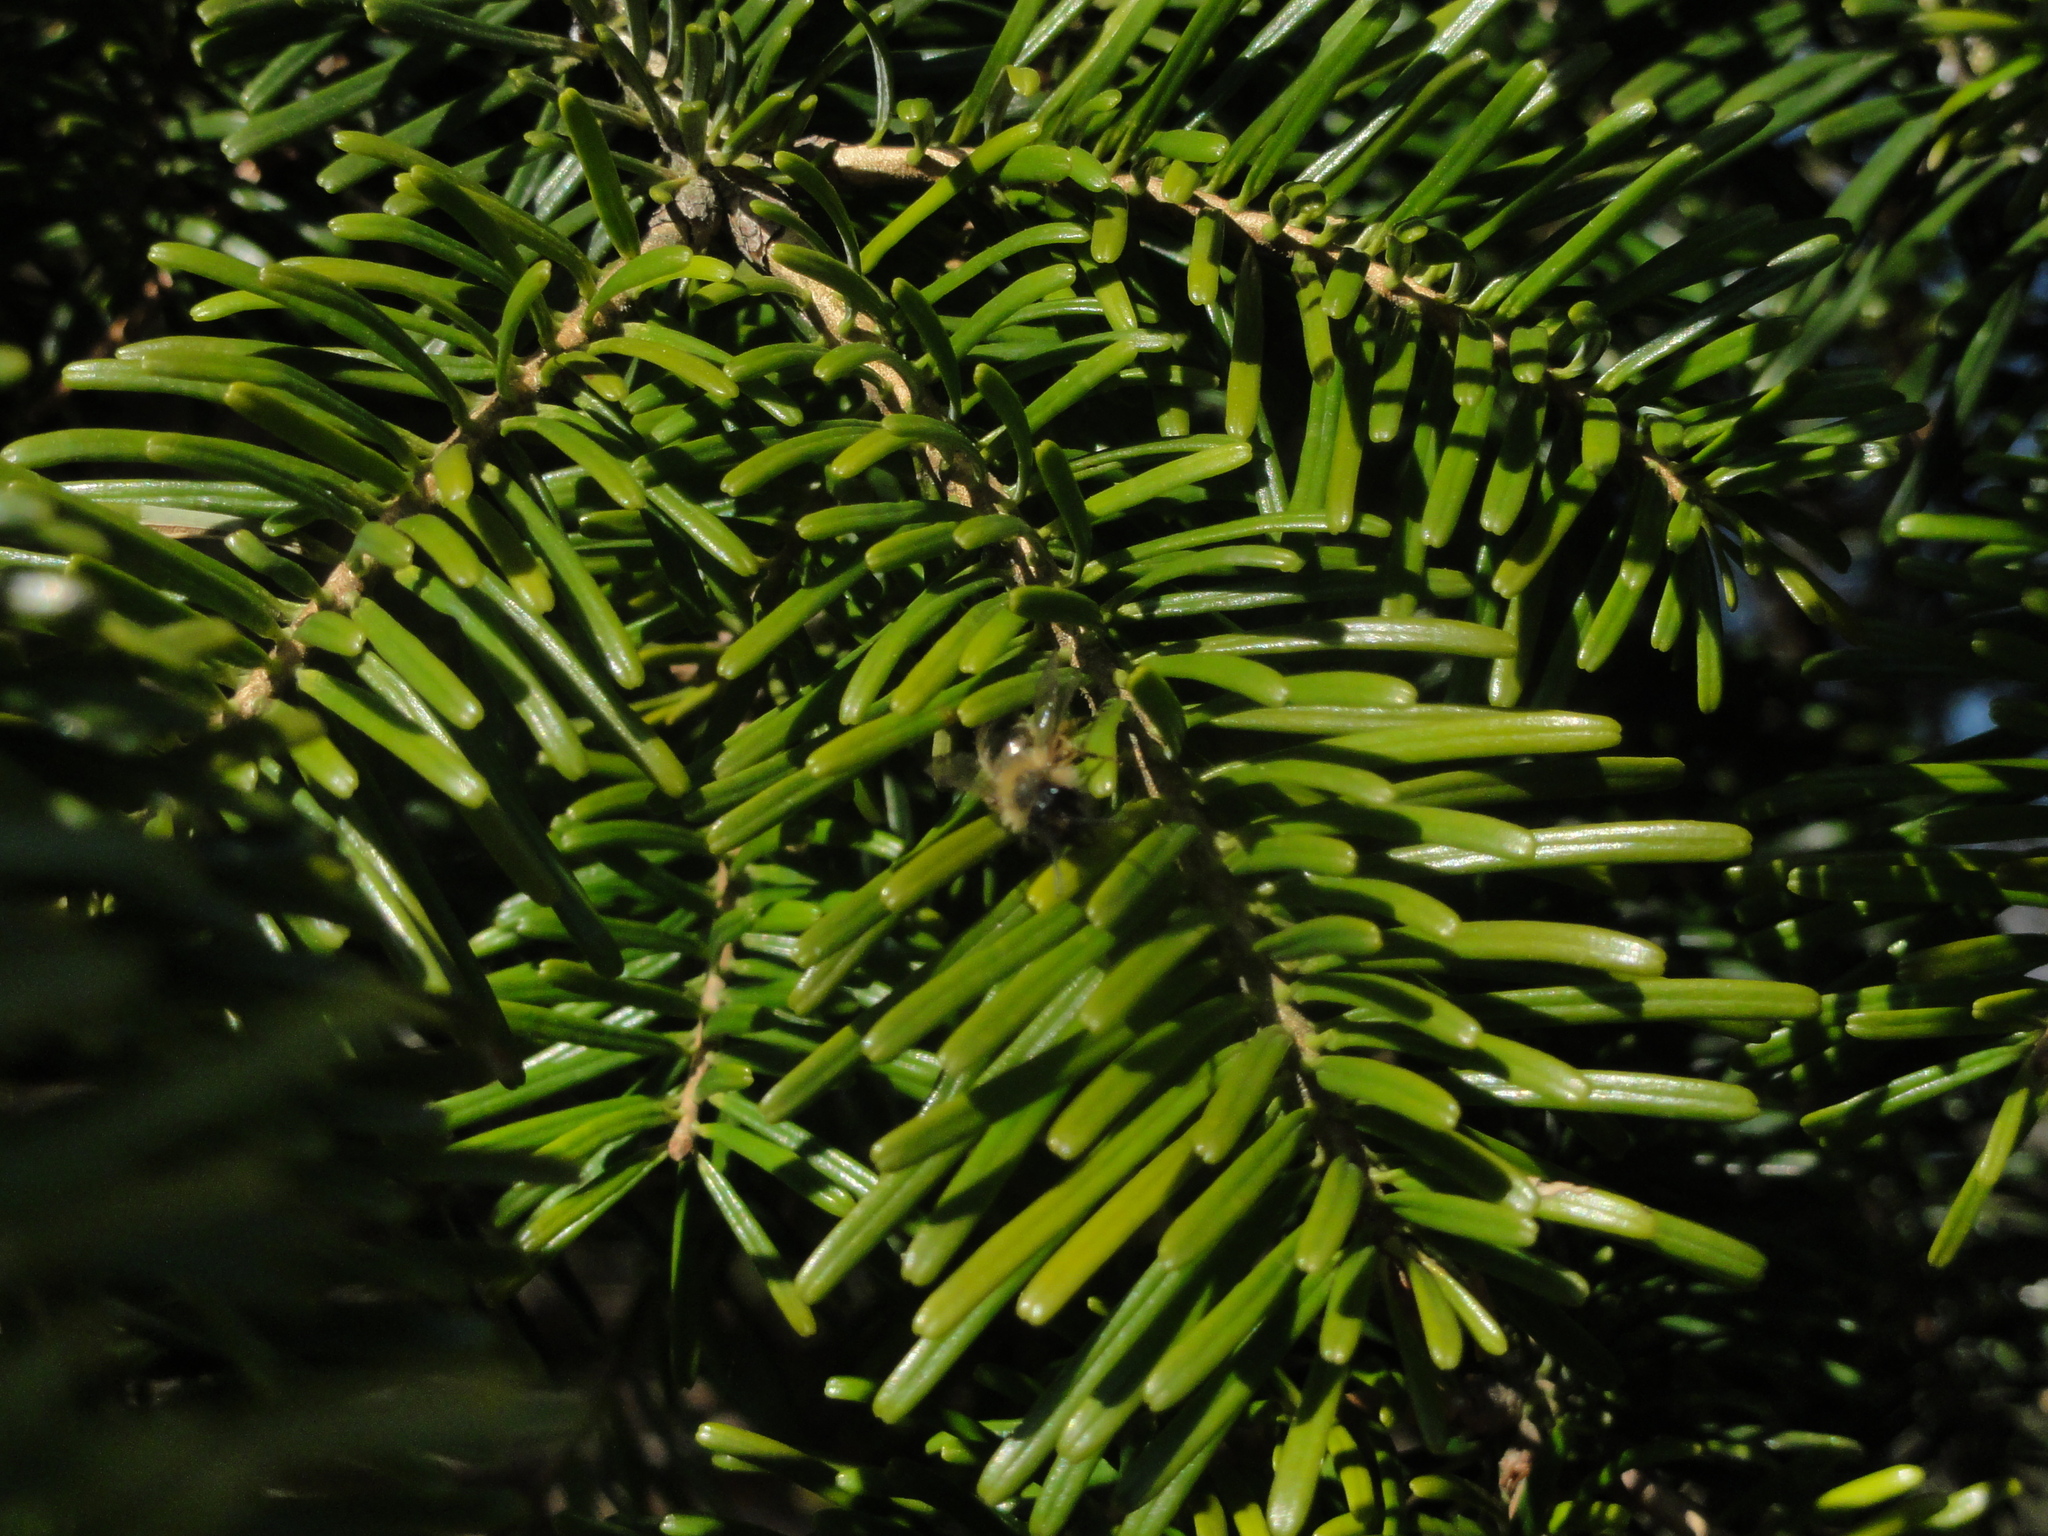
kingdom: Plantae
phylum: Tracheophyta
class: Pinopsida
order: Pinales
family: Pinaceae
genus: Abies
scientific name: Abies alba
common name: Silver fir
